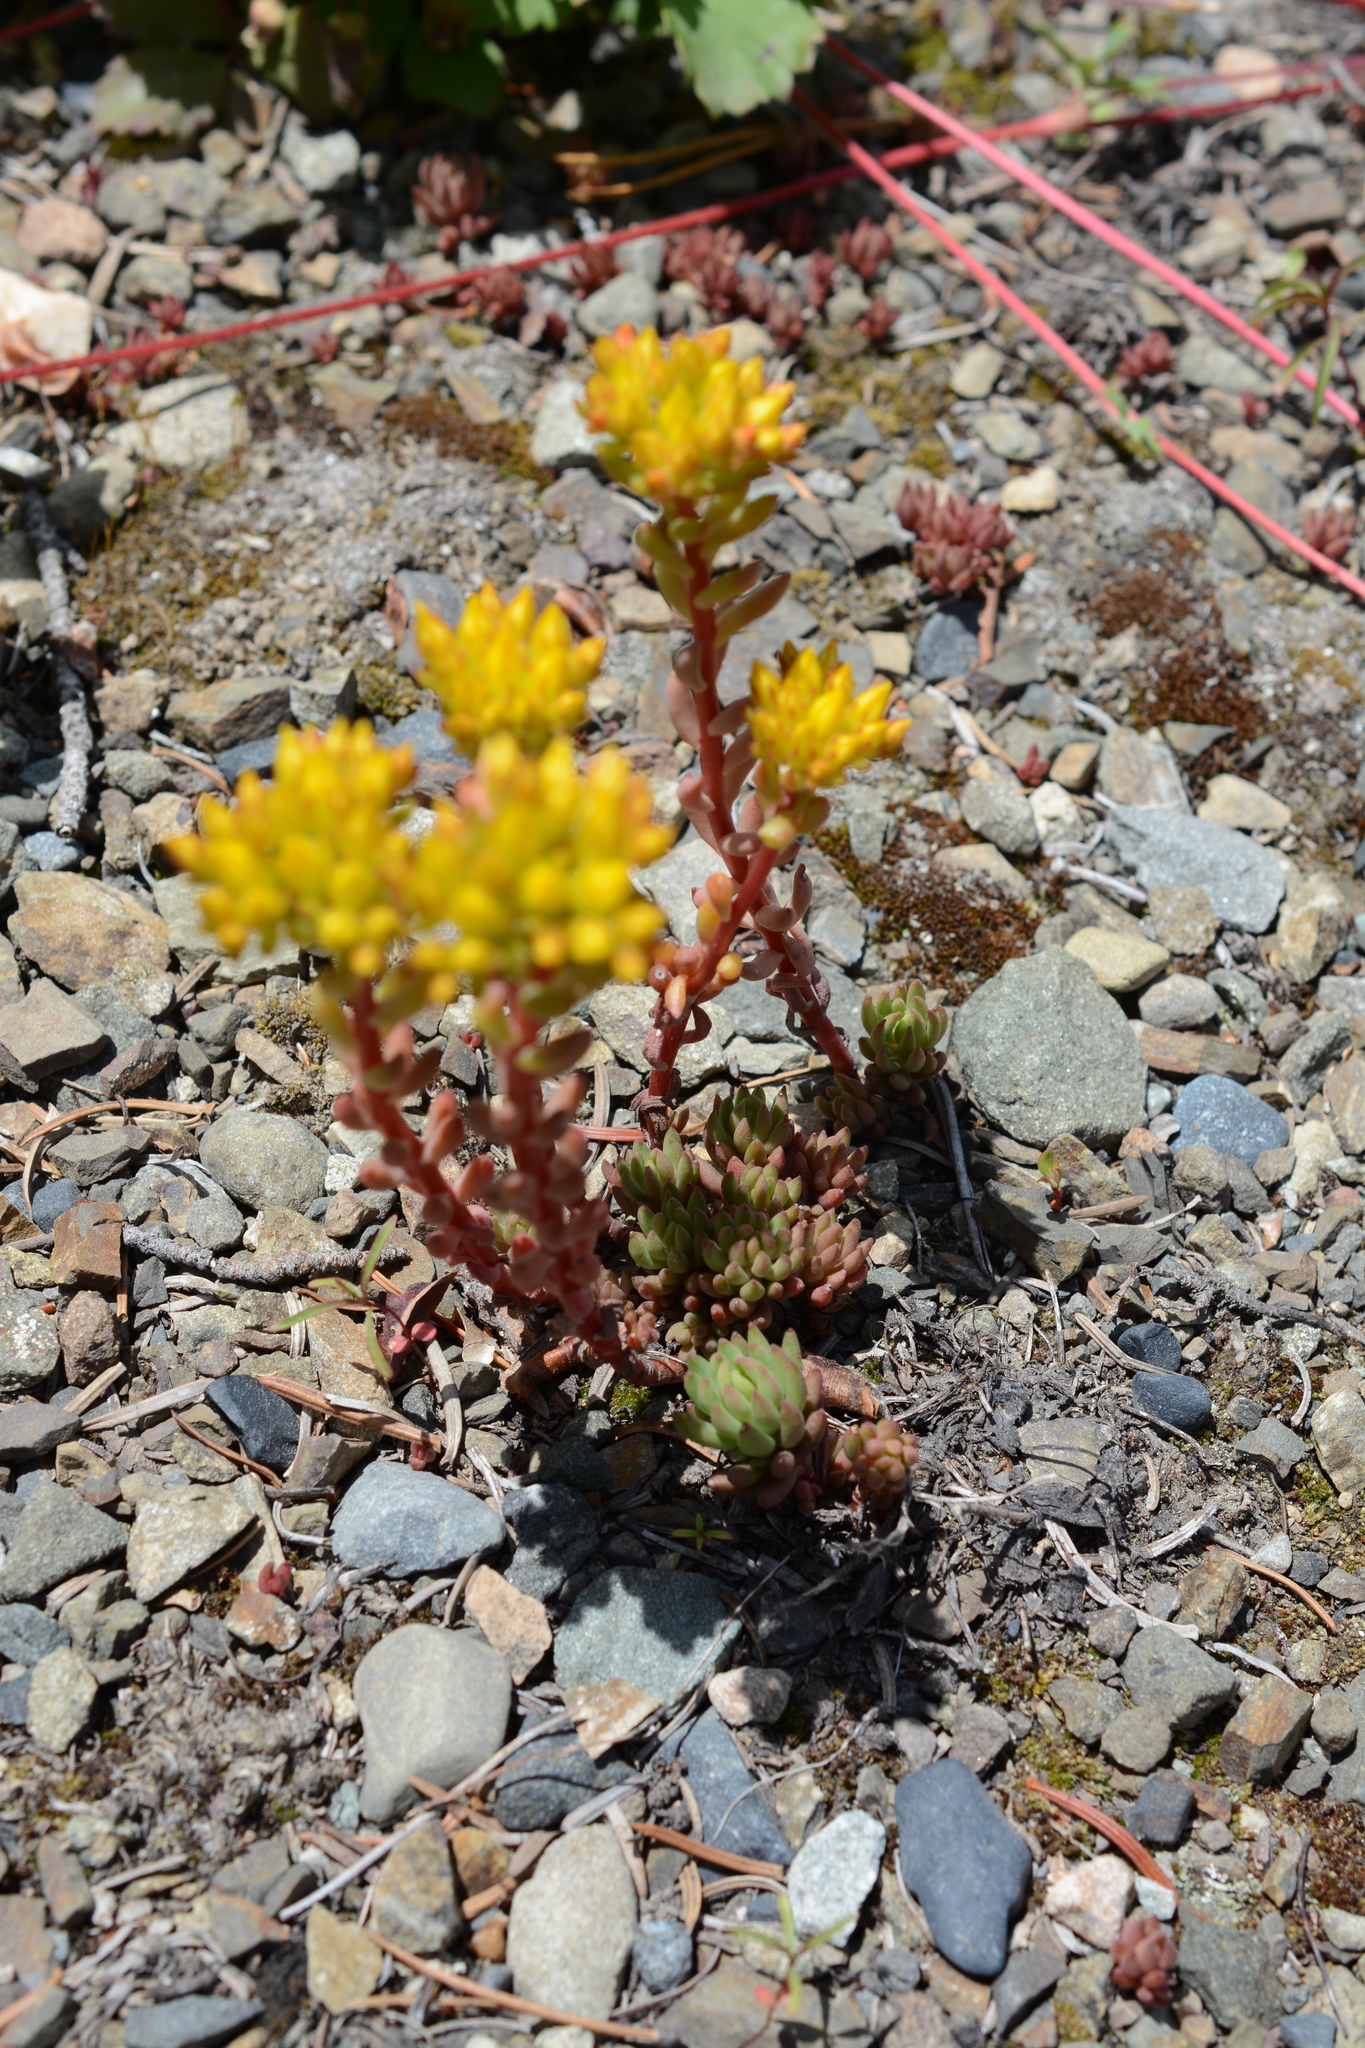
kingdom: Plantae
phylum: Tracheophyta
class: Magnoliopsida
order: Saxifragales
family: Crassulaceae
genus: Sedum
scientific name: Sedum lanceolatum
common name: Common stonecrop
